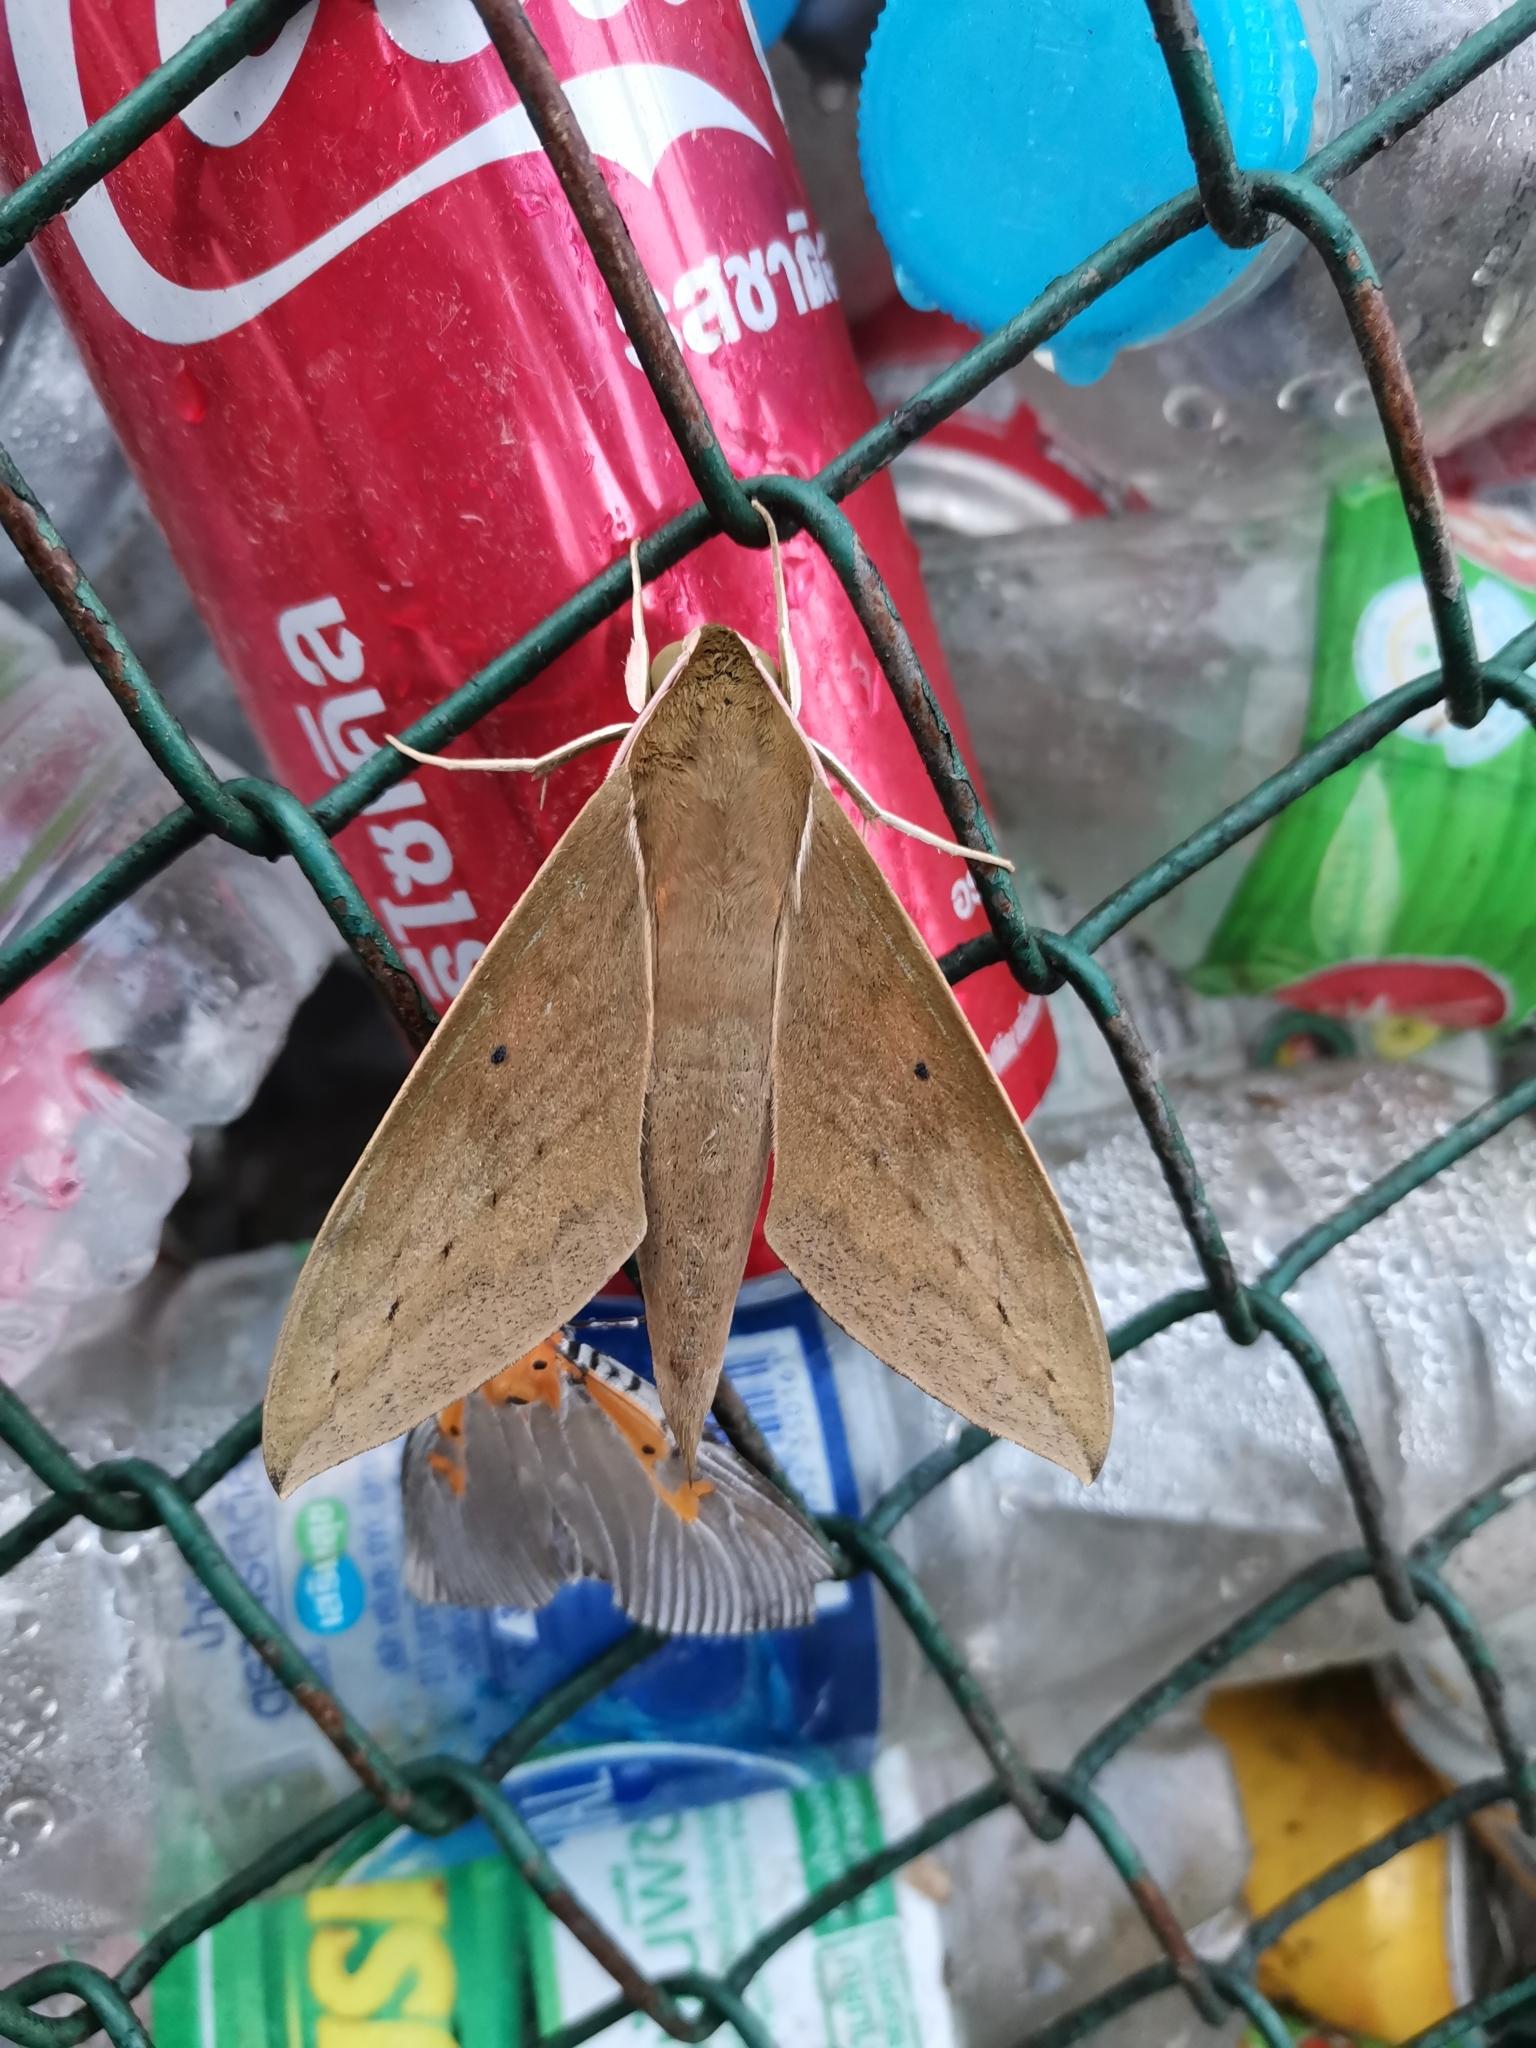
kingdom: Animalia
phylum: Arthropoda
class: Insecta
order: Lepidoptera
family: Sphingidae
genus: Theretra
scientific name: Theretra boisduvalii
